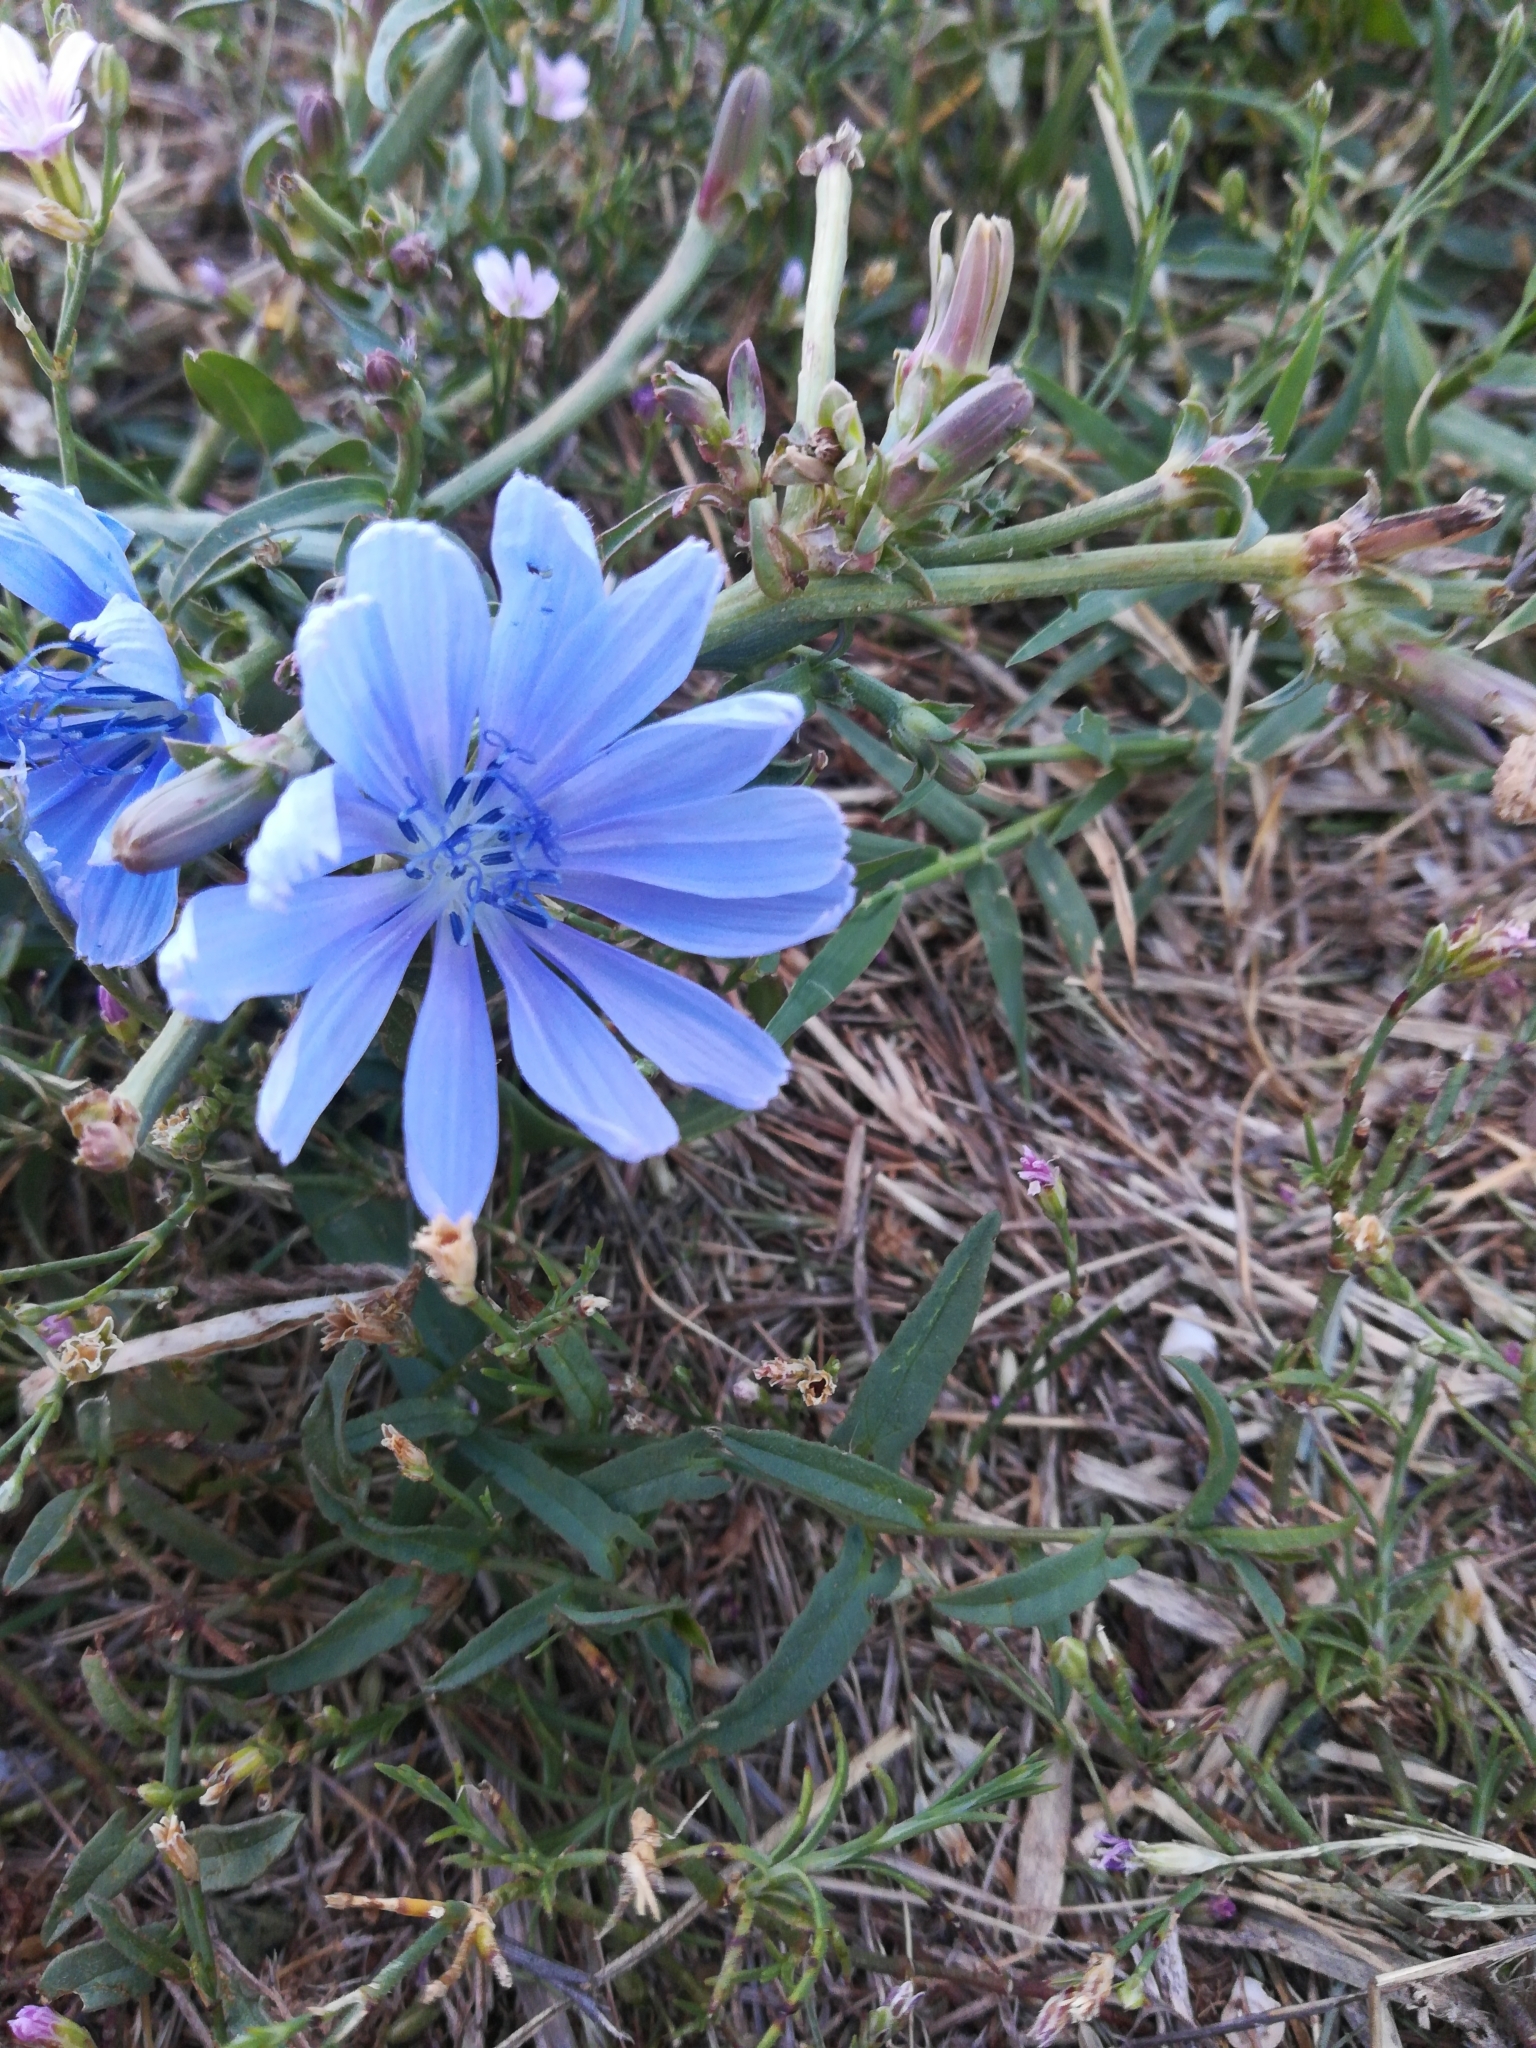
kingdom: Plantae
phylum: Tracheophyta
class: Magnoliopsida
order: Asterales
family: Asteraceae
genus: Cichorium
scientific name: Cichorium intybus
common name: Chicory
